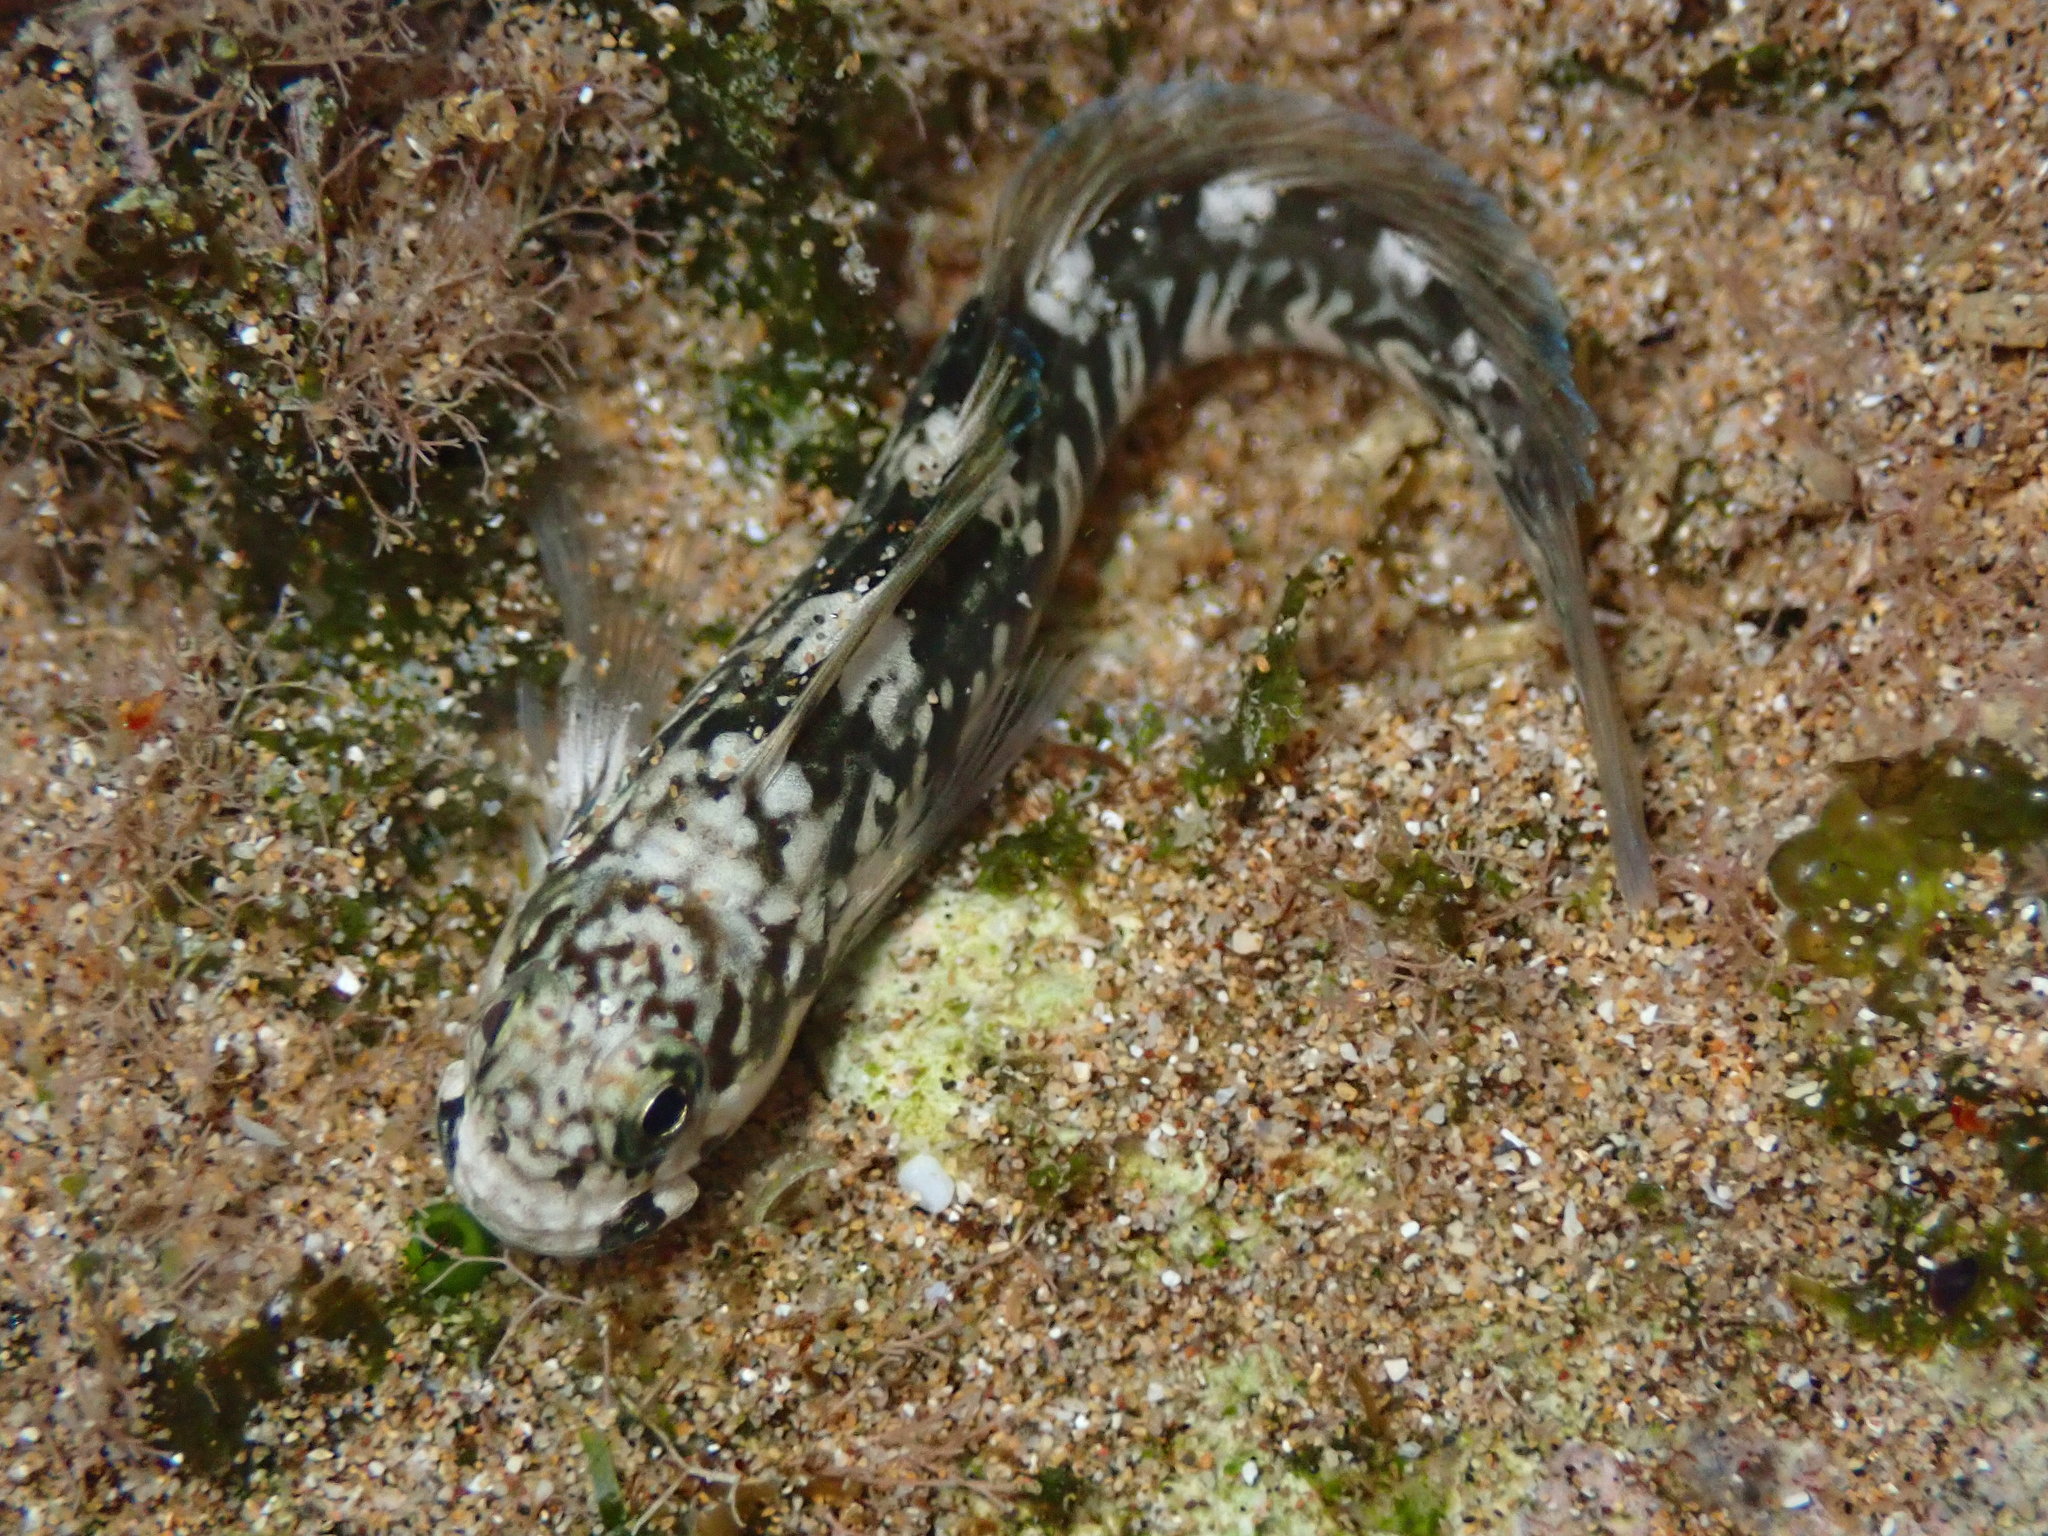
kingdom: Animalia
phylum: Chordata
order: Perciformes
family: Blenniidae
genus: Istiblennius
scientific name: Istiblennius zebra
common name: Zebra blenny
